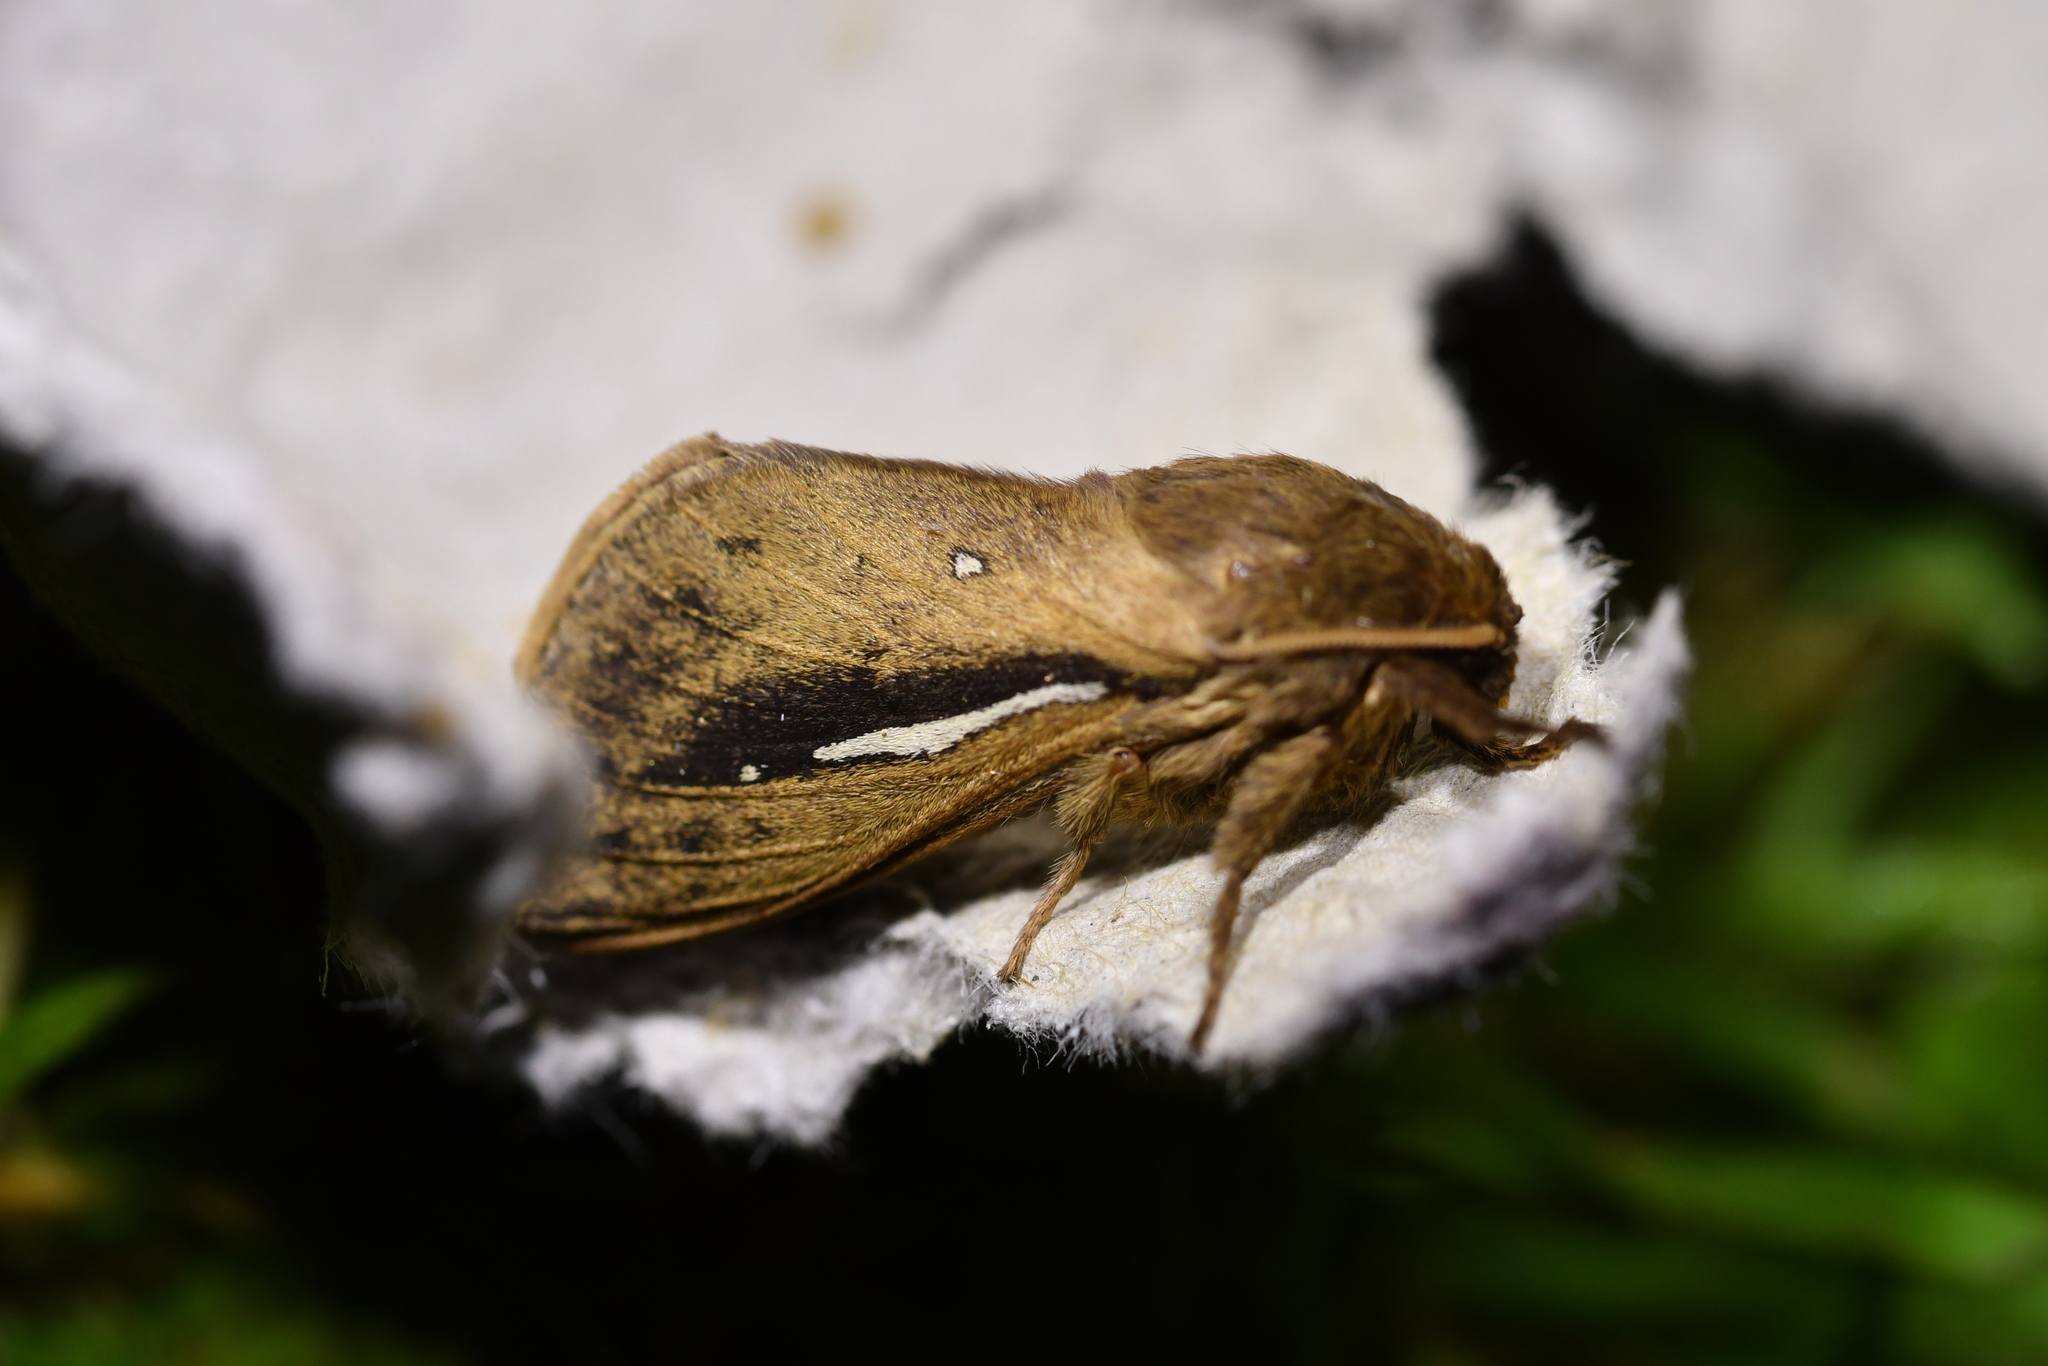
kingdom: Animalia
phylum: Arthropoda
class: Insecta
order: Lepidoptera
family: Hepialidae
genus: Wiseana
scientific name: Wiseana umbraculatus
